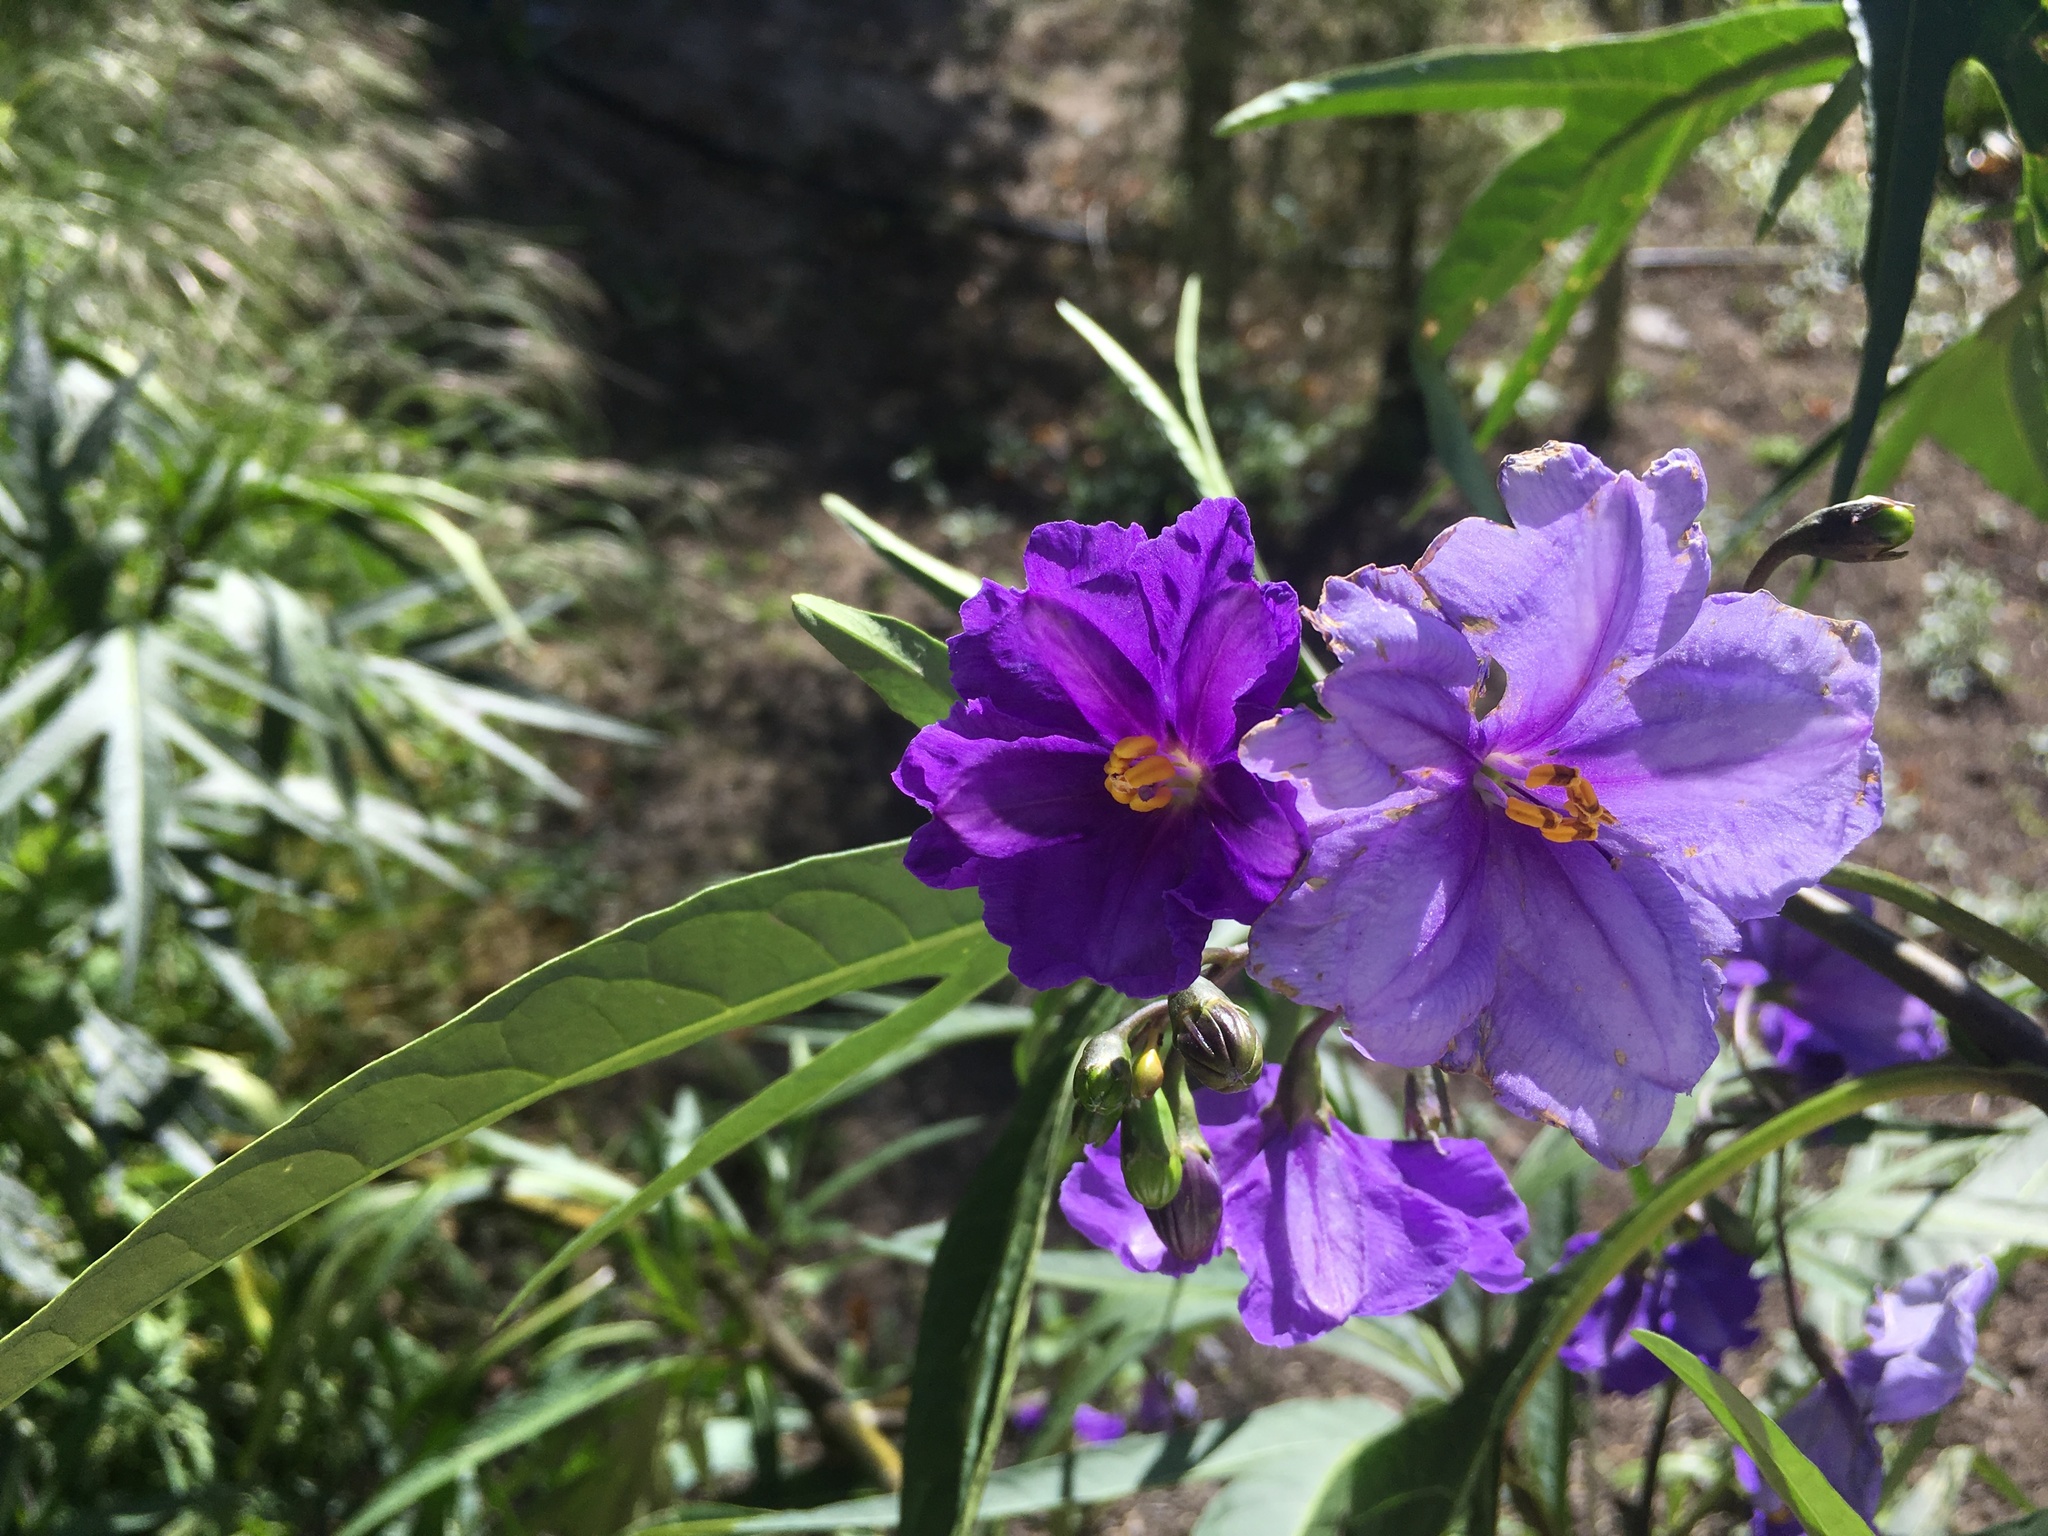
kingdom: Plantae
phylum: Tracheophyta
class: Magnoliopsida
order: Solanales
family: Solanaceae
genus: Solanum
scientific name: Solanum laciniatum
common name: Kangaroo-apple
